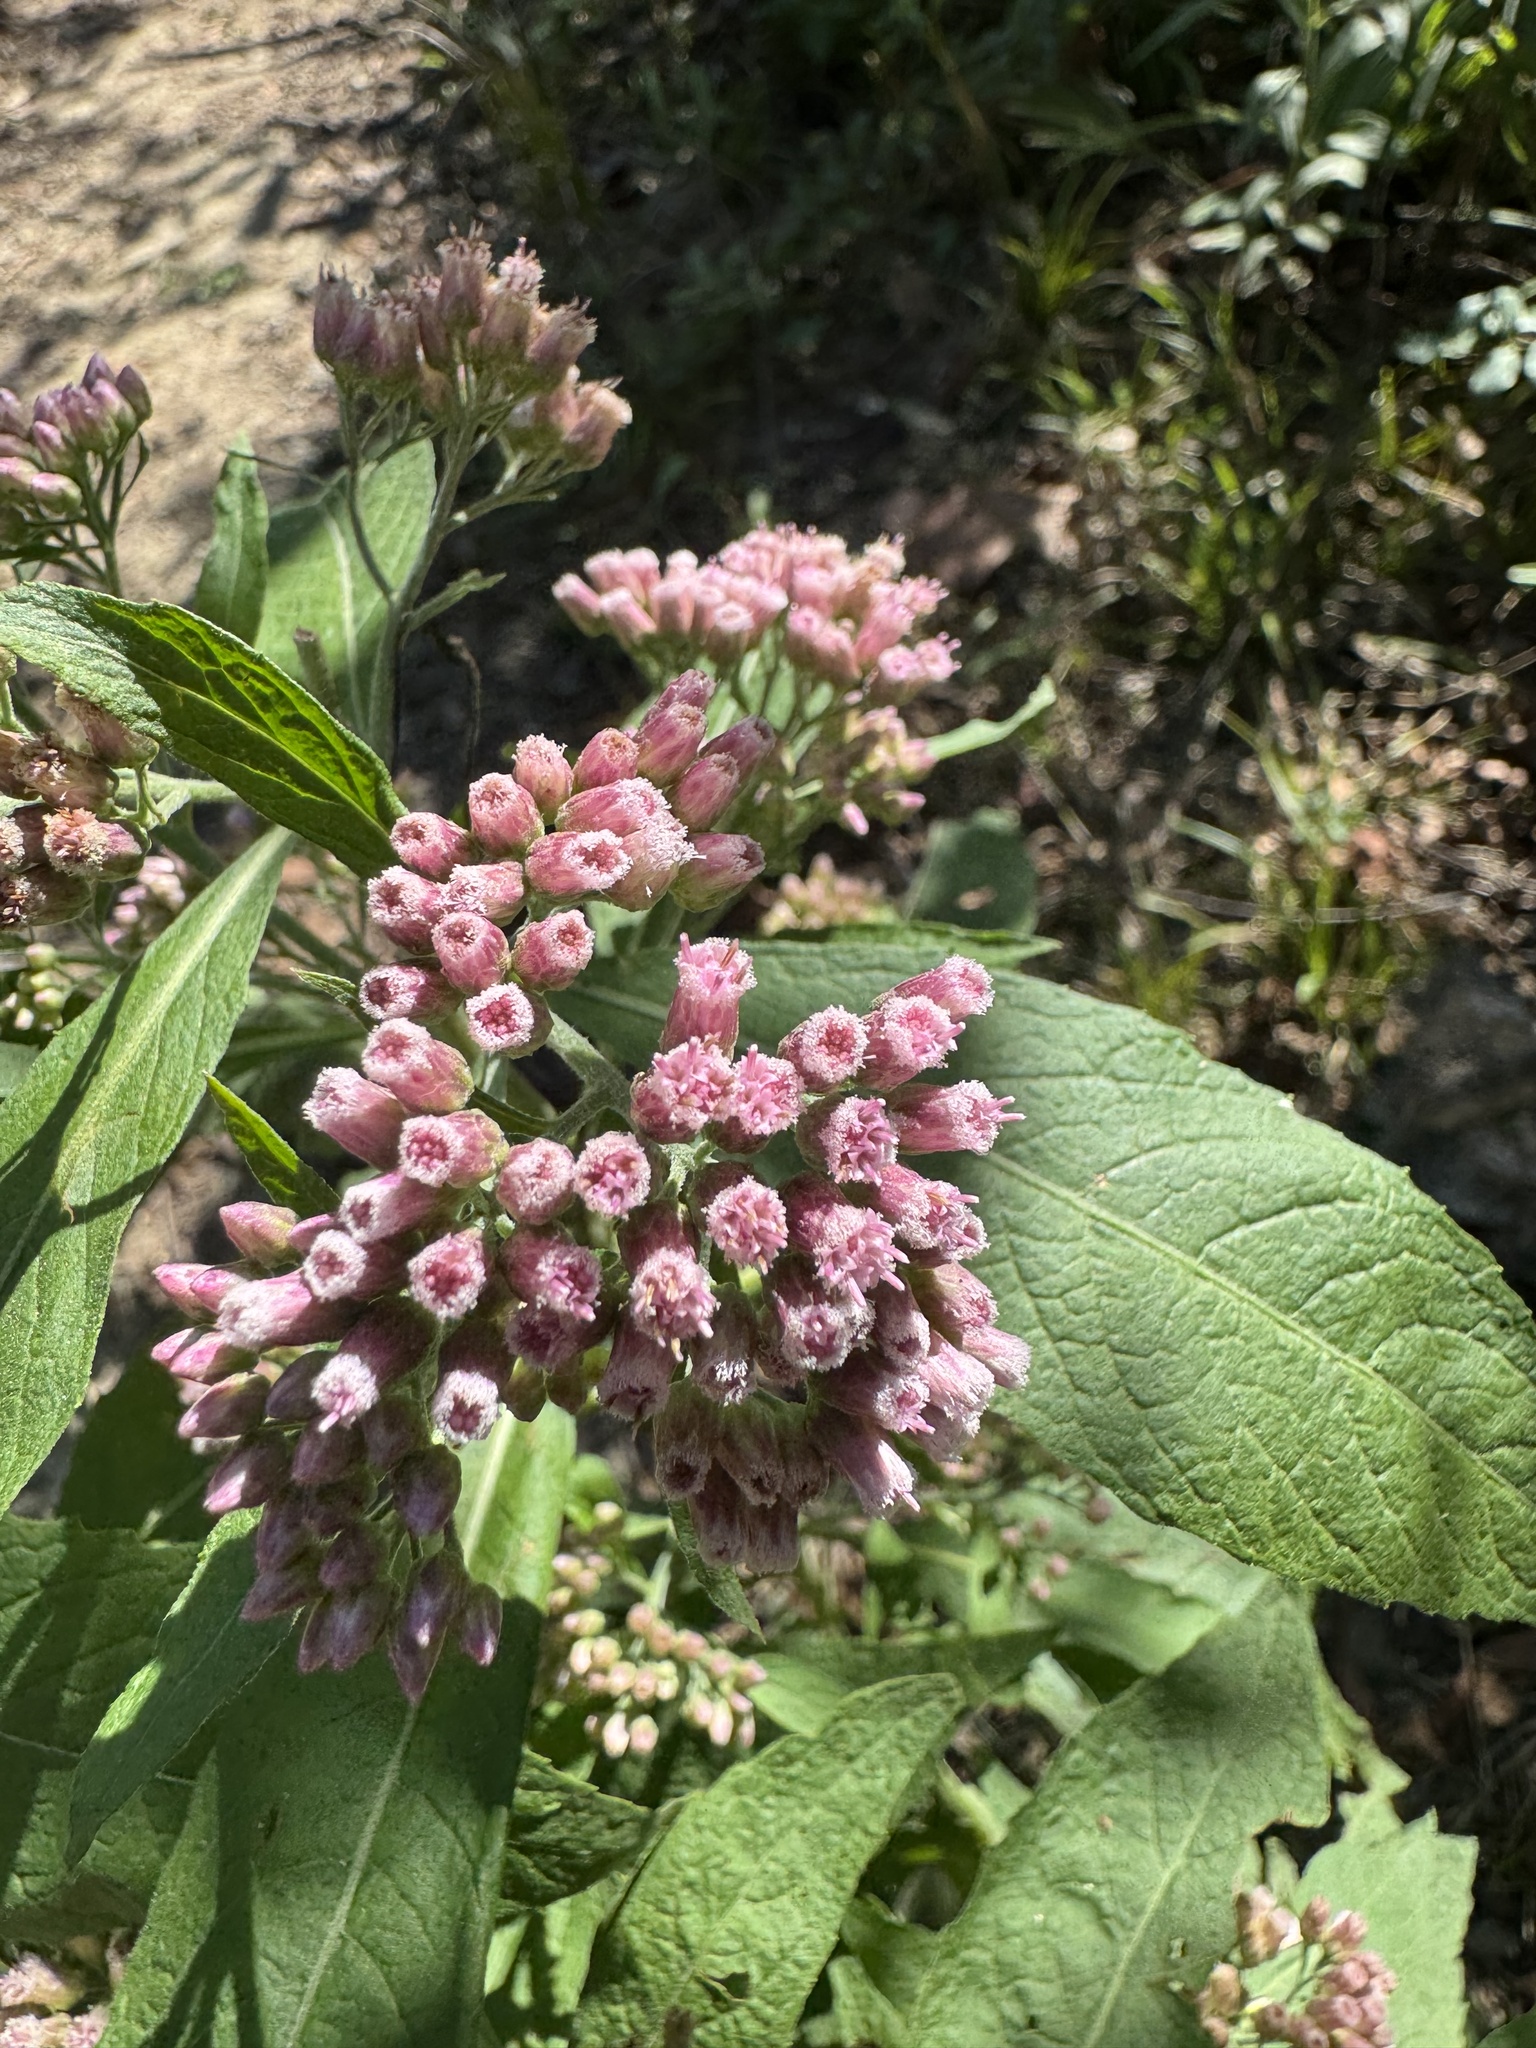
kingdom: Plantae
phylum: Tracheophyta
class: Magnoliopsida
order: Asterales
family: Asteraceae
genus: Pluchea
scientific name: Pluchea camphorata
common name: Camphor pluchea
